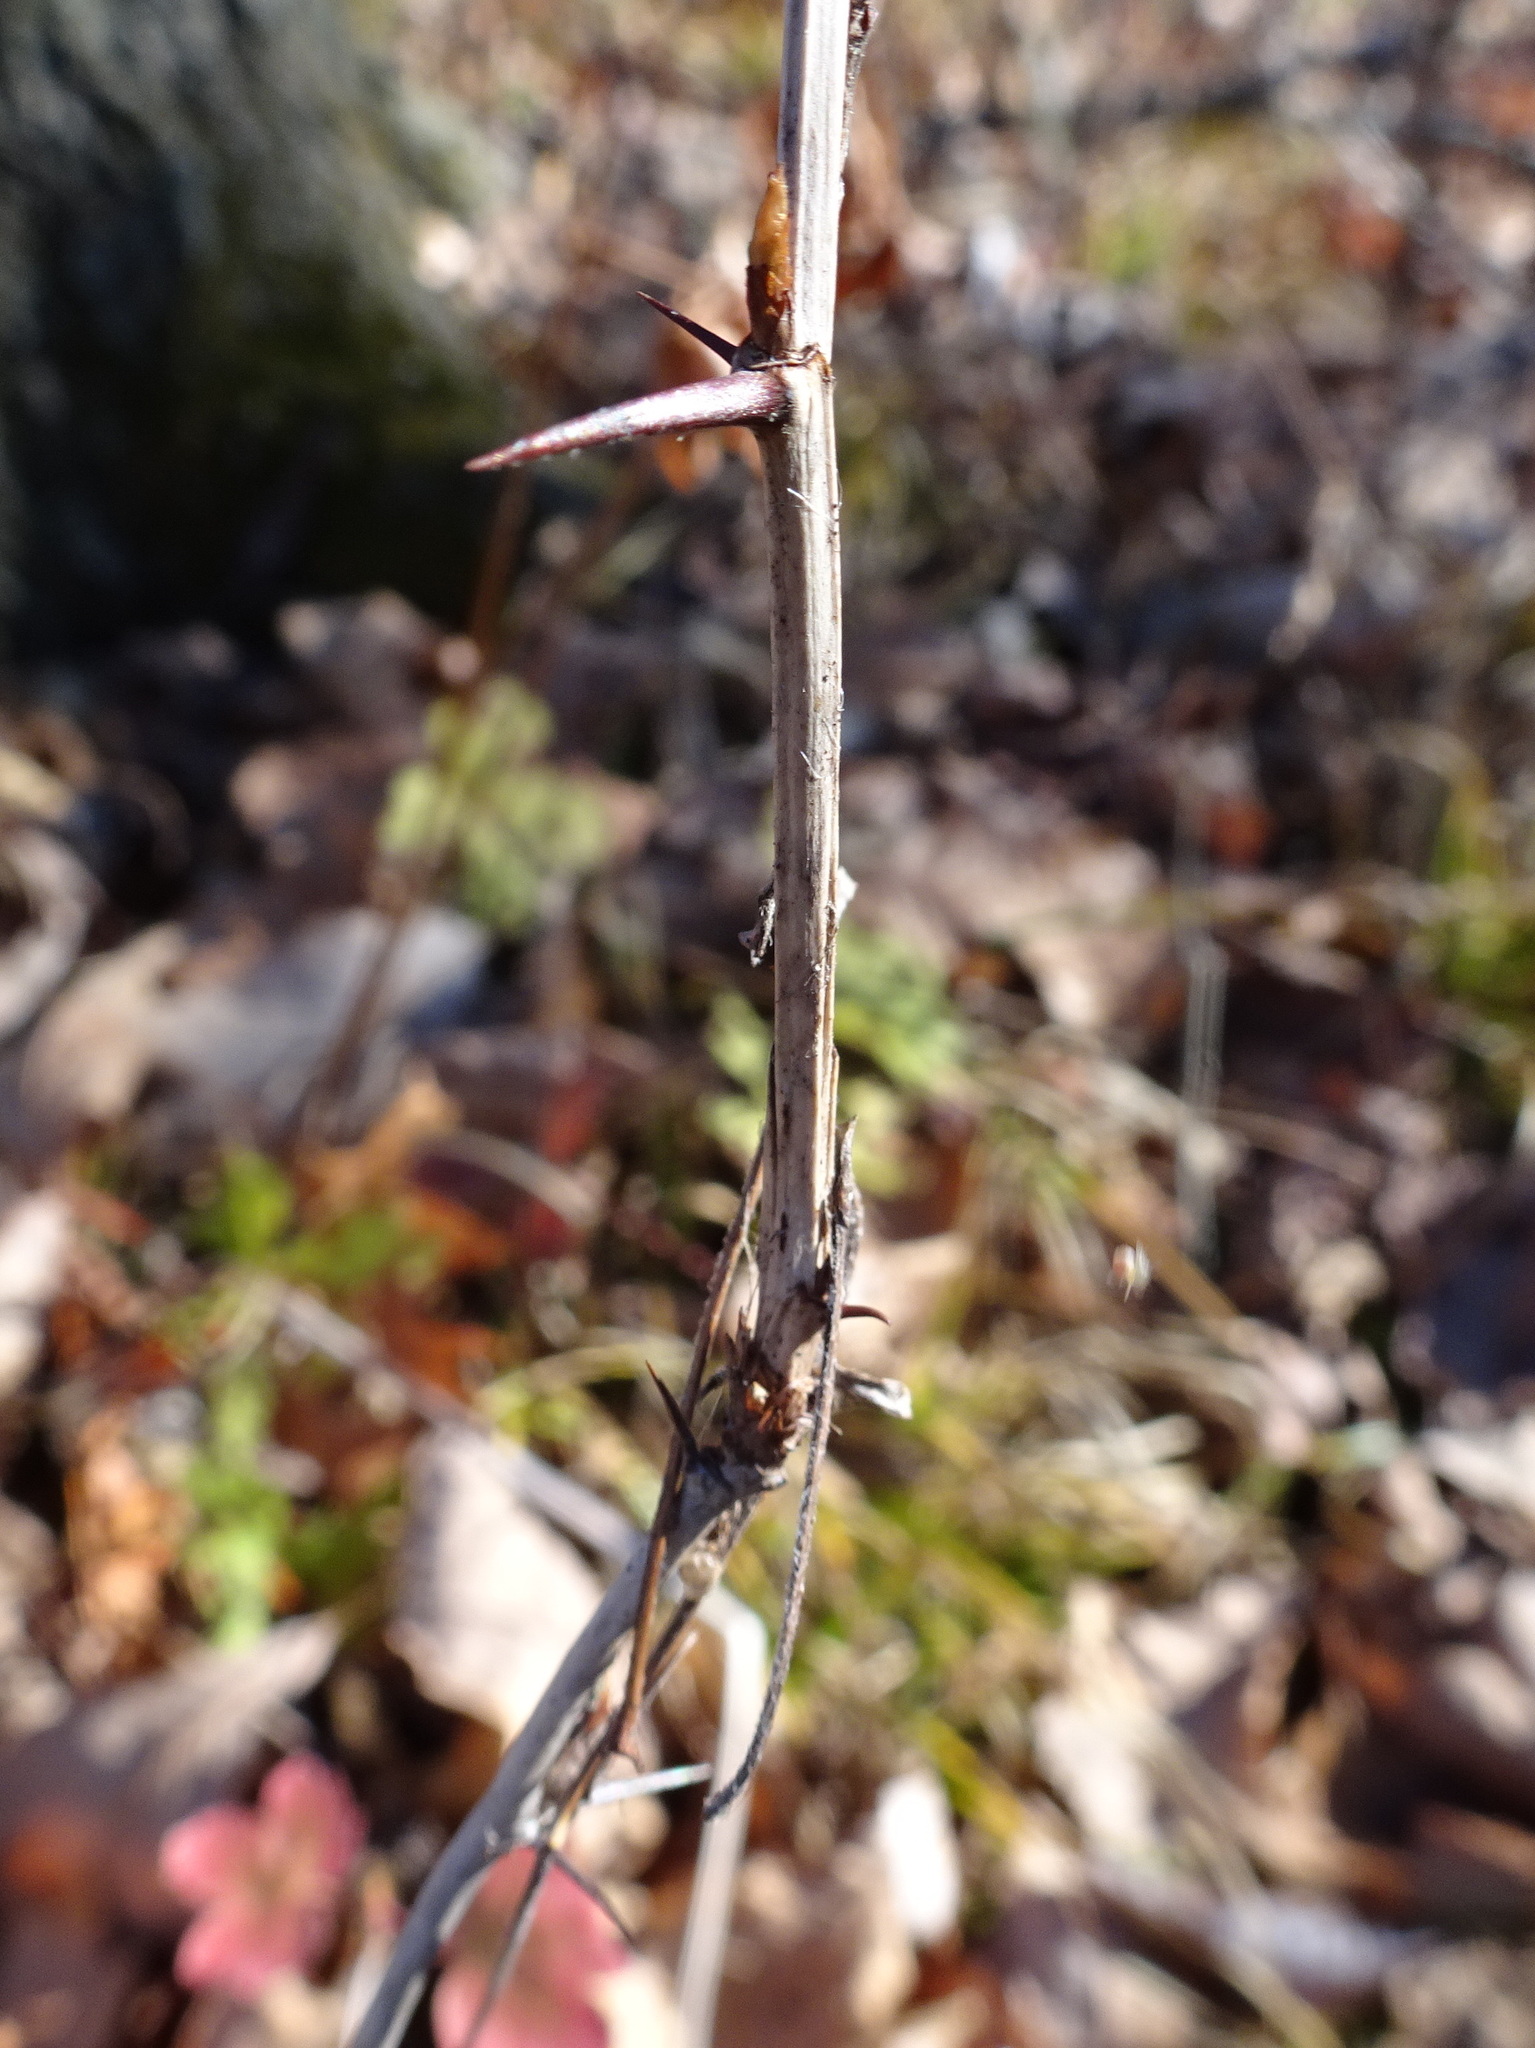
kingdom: Plantae
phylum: Tracheophyta
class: Magnoliopsida
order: Saxifragales
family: Grossulariaceae
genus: Ribes
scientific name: Ribes missouriense
